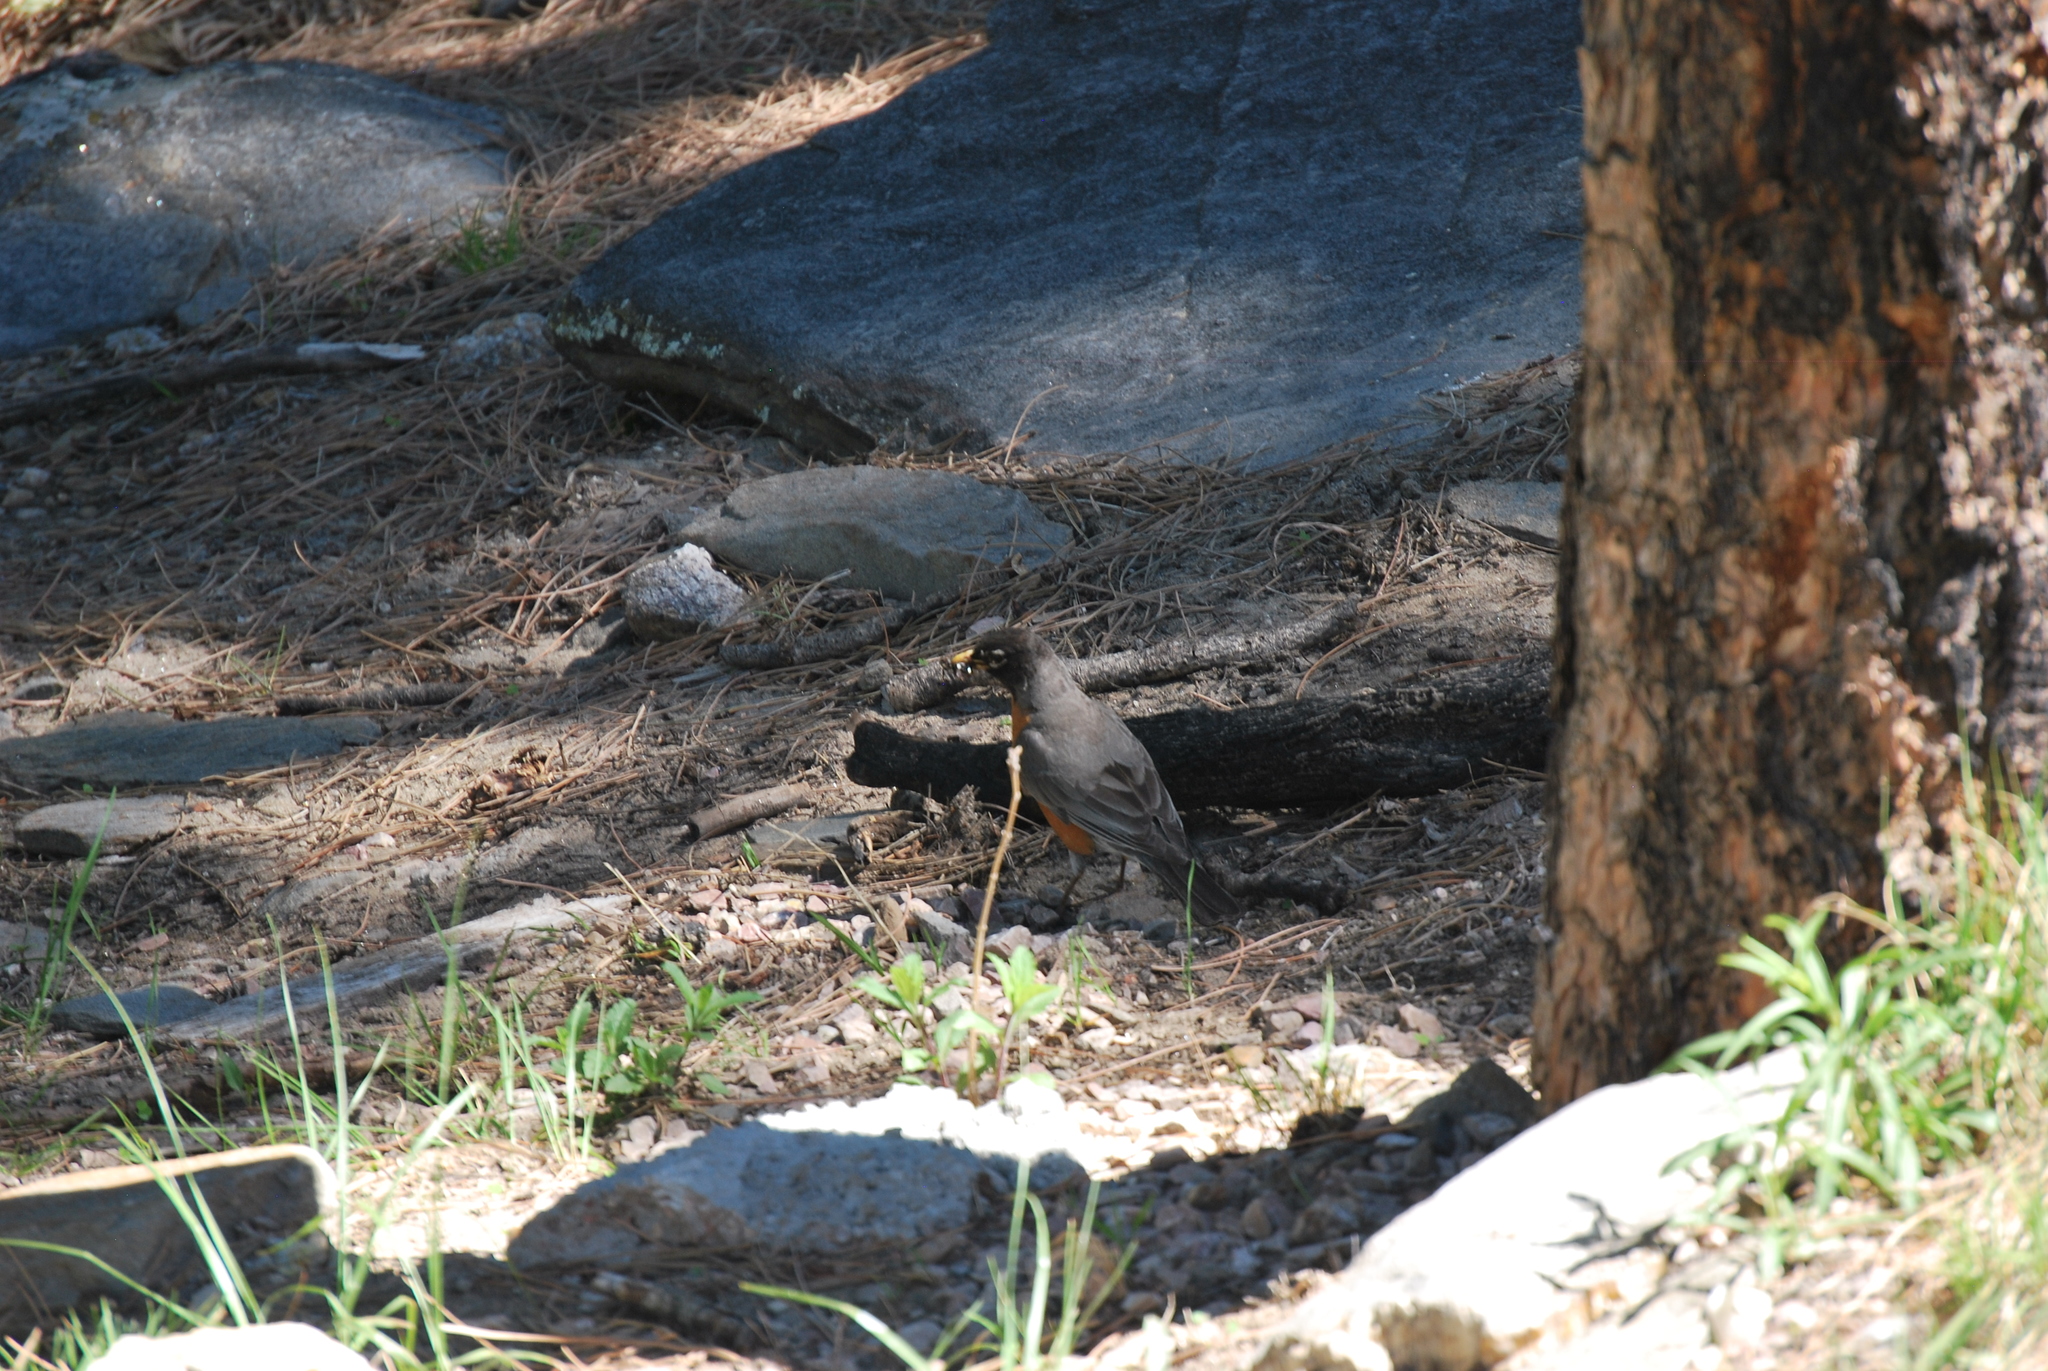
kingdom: Animalia
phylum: Chordata
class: Aves
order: Passeriformes
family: Turdidae
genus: Turdus
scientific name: Turdus migratorius
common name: American robin
